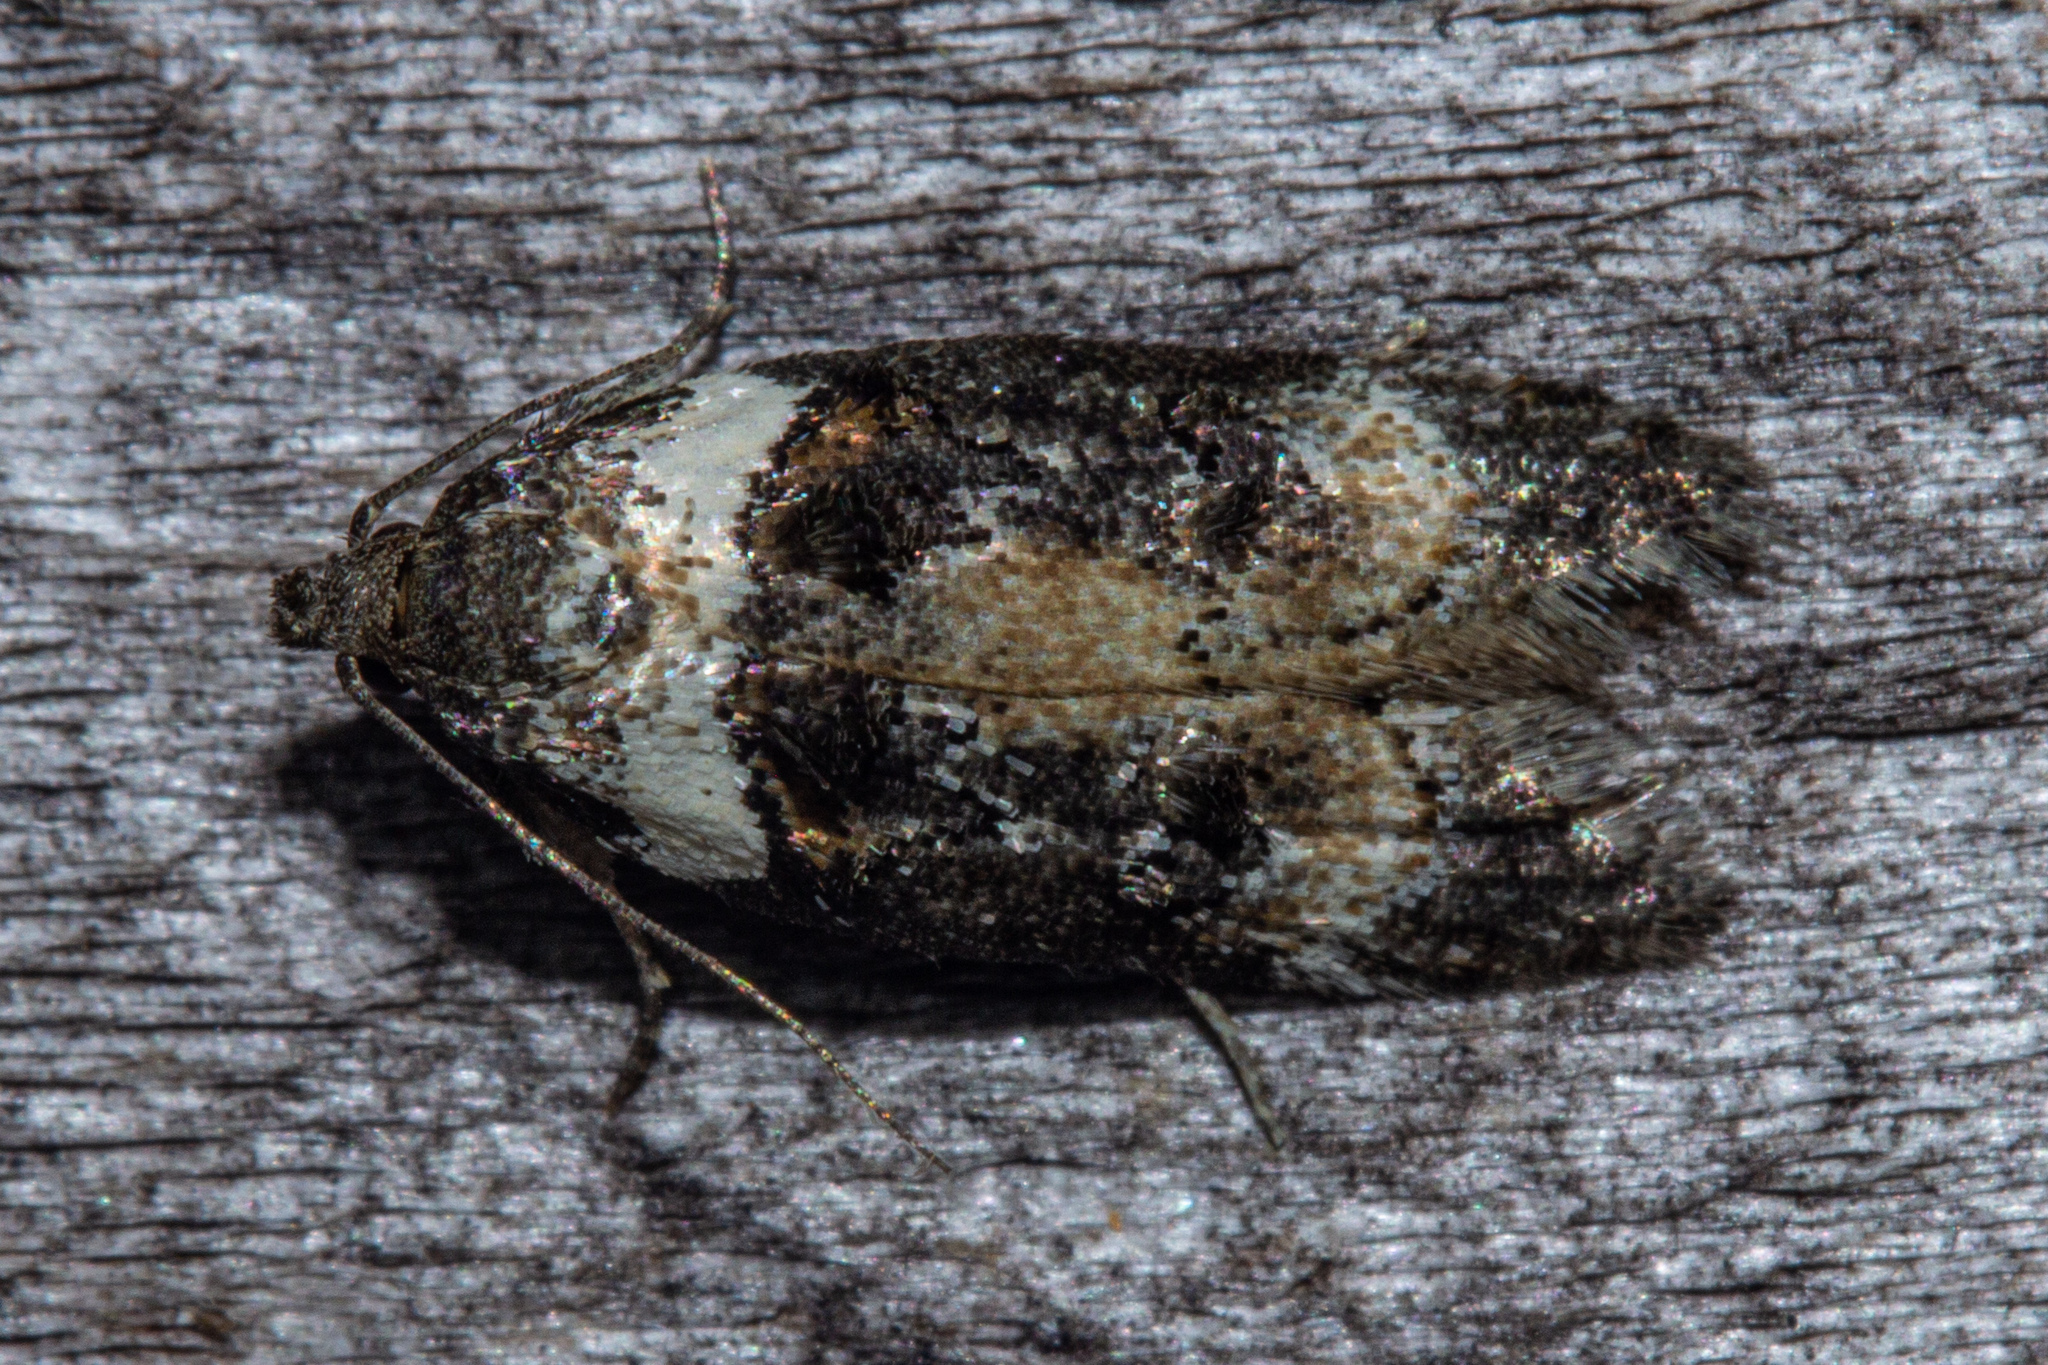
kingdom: Animalia
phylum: Arthropoda
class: Insecta
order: Lepidoptera
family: Oecophoridae
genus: Trachypepla
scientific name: Trachypepla conspicuella
